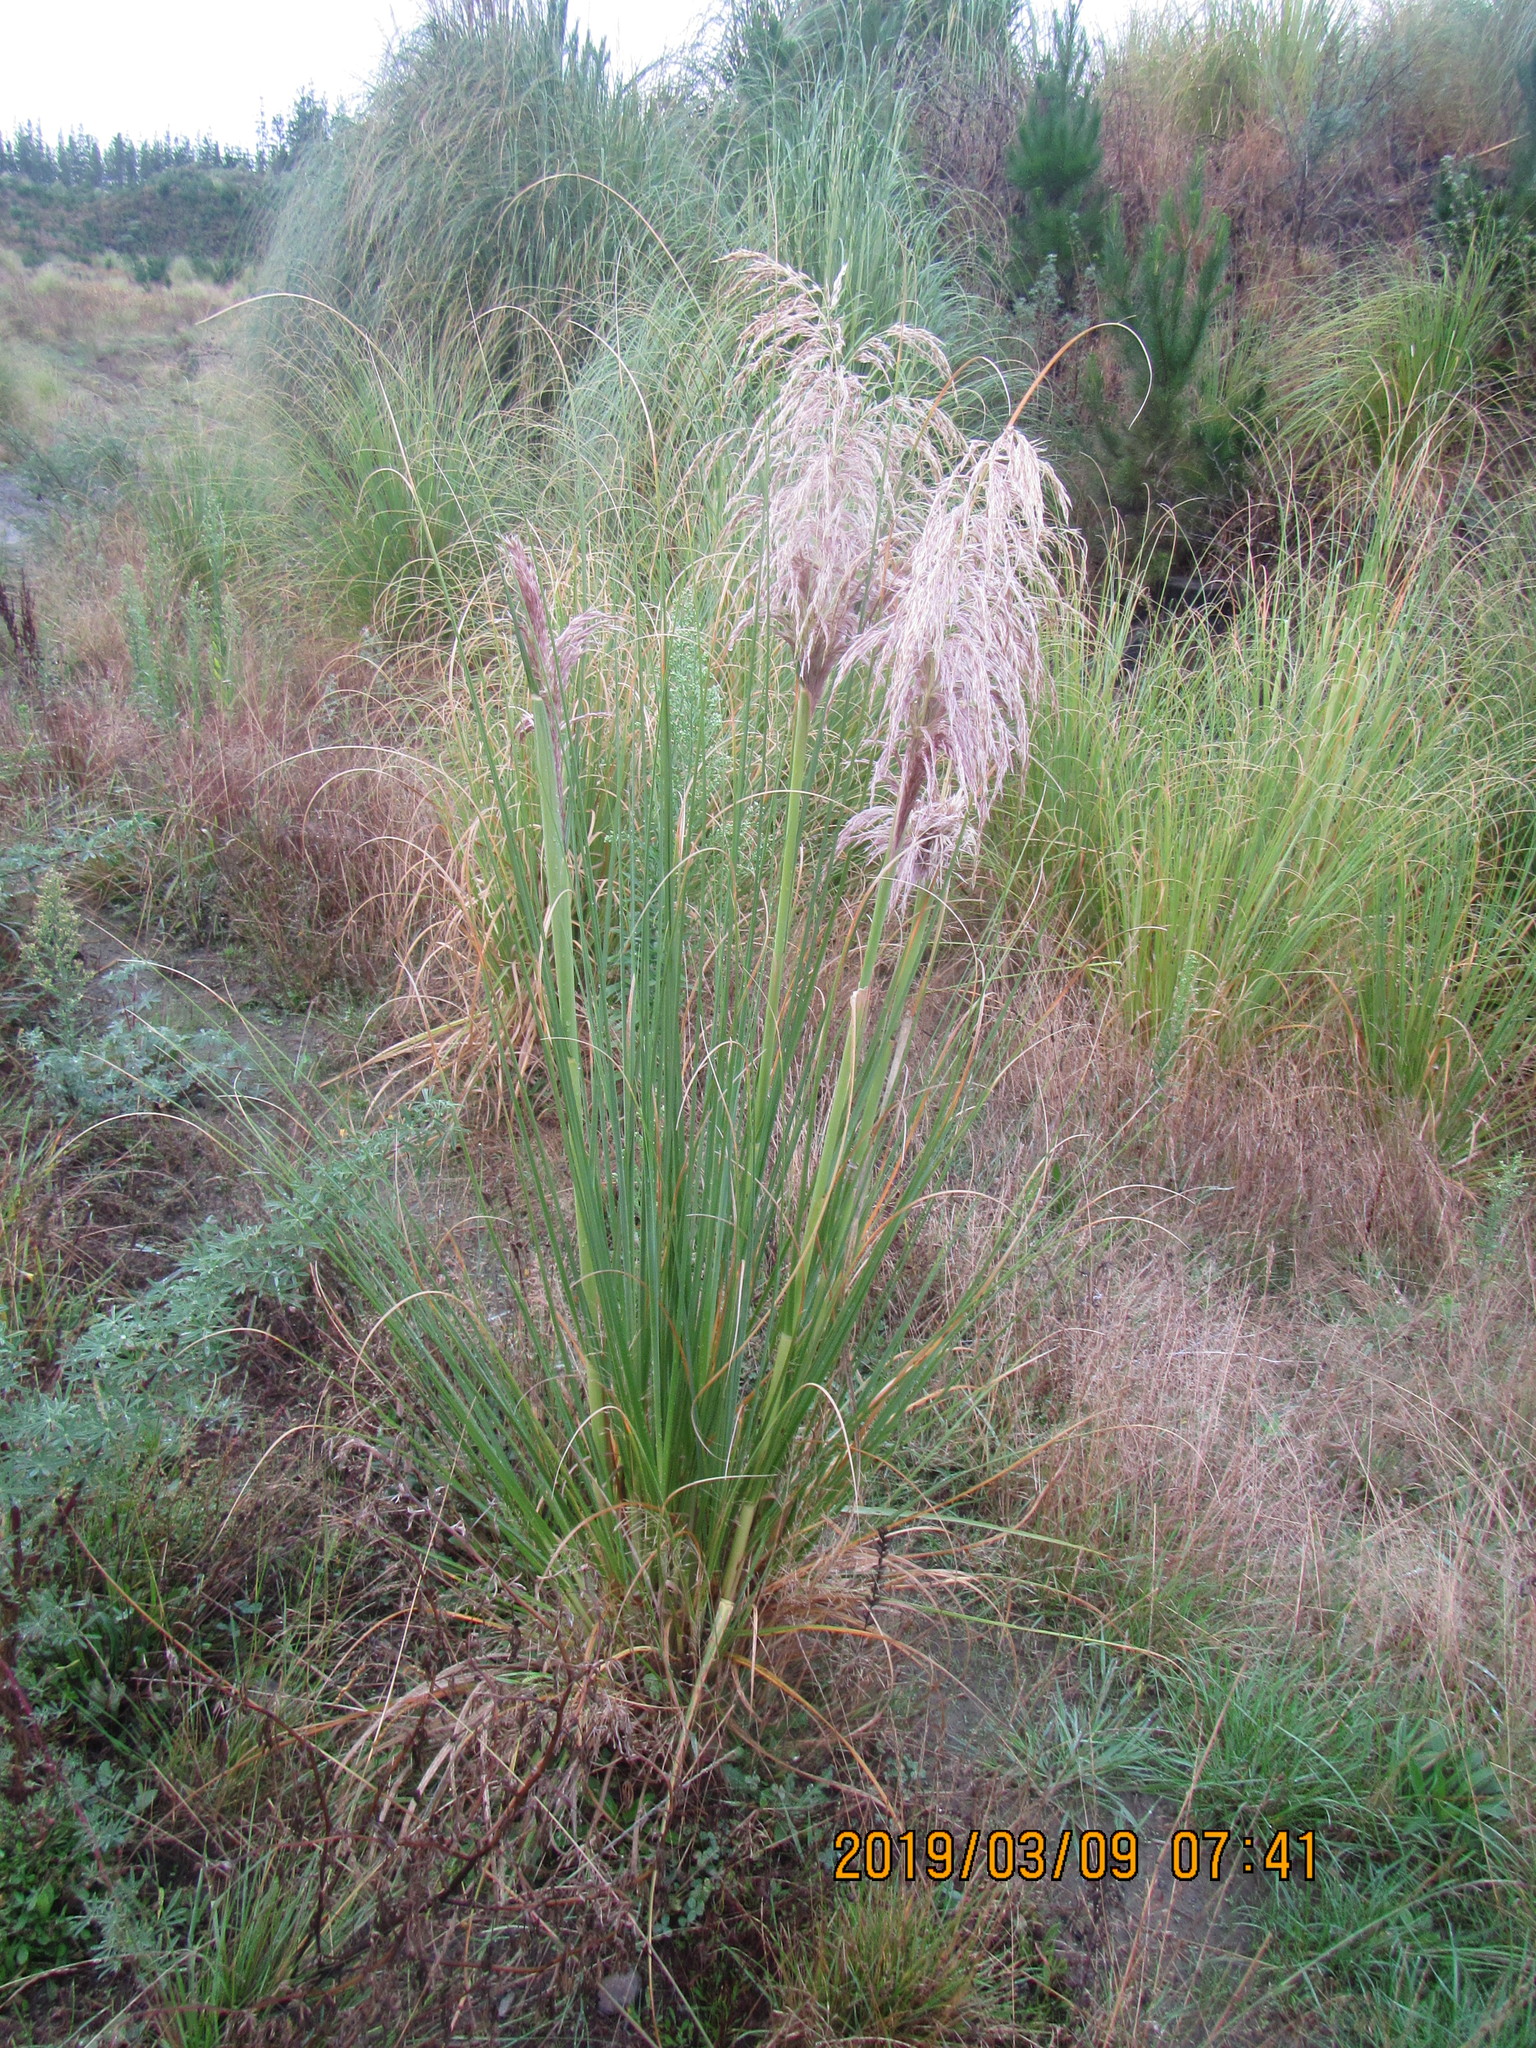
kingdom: Plantae
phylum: Tracheophyta
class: Liliopsida
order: Poales
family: Poaceae
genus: Cortaderia
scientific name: Cortaderia jubata
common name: Purple pampas grass
